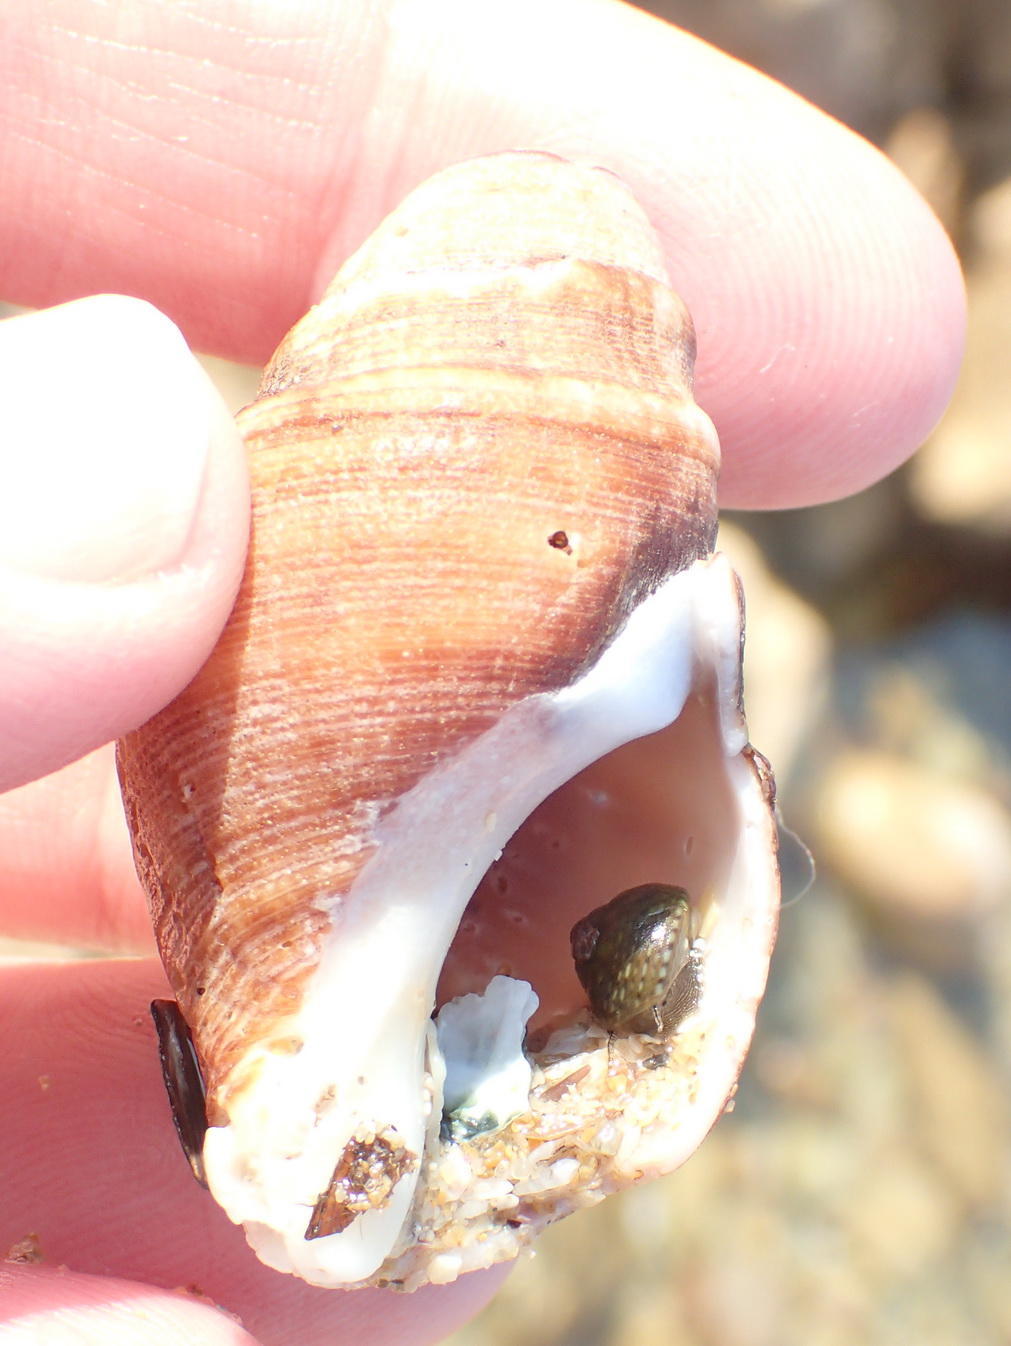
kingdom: Animalia
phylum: Mollusca
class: Gastropoda
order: Neogastropoda
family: Buccinidae
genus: Burnupena
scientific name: Burnupena cincta
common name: Ridged burnupena
